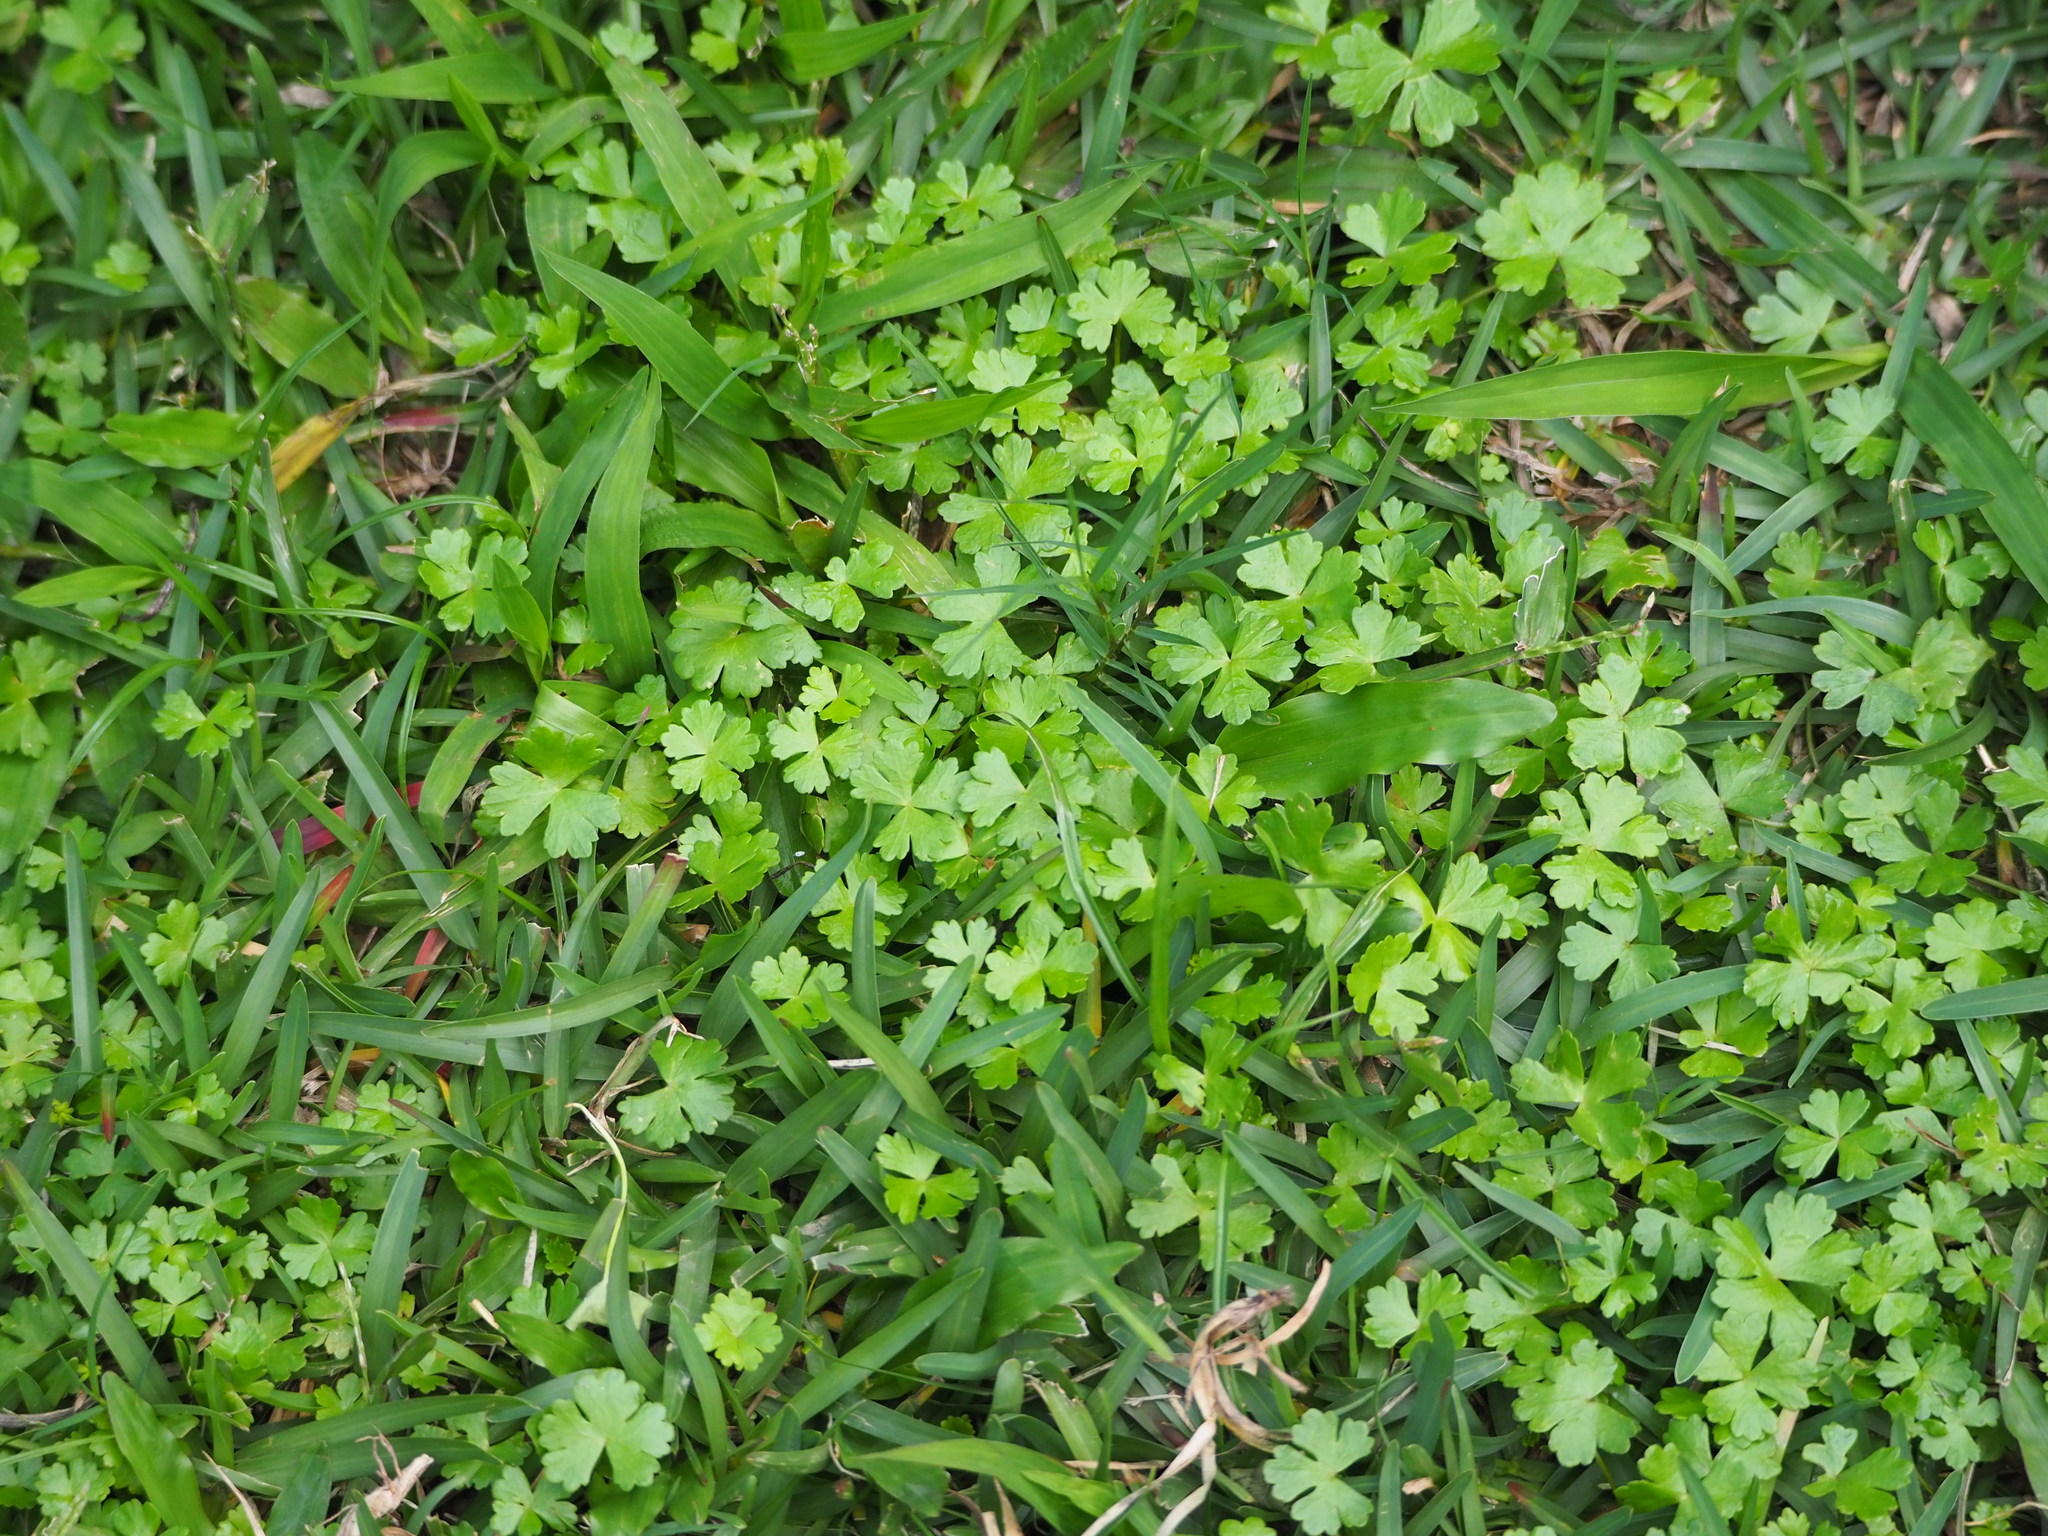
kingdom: Plantae
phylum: Tracheophyta
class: Magnoliopsida
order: Apiales
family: Araliaceae
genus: Hydrocotyle
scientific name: Hydrocotyle batrachium
